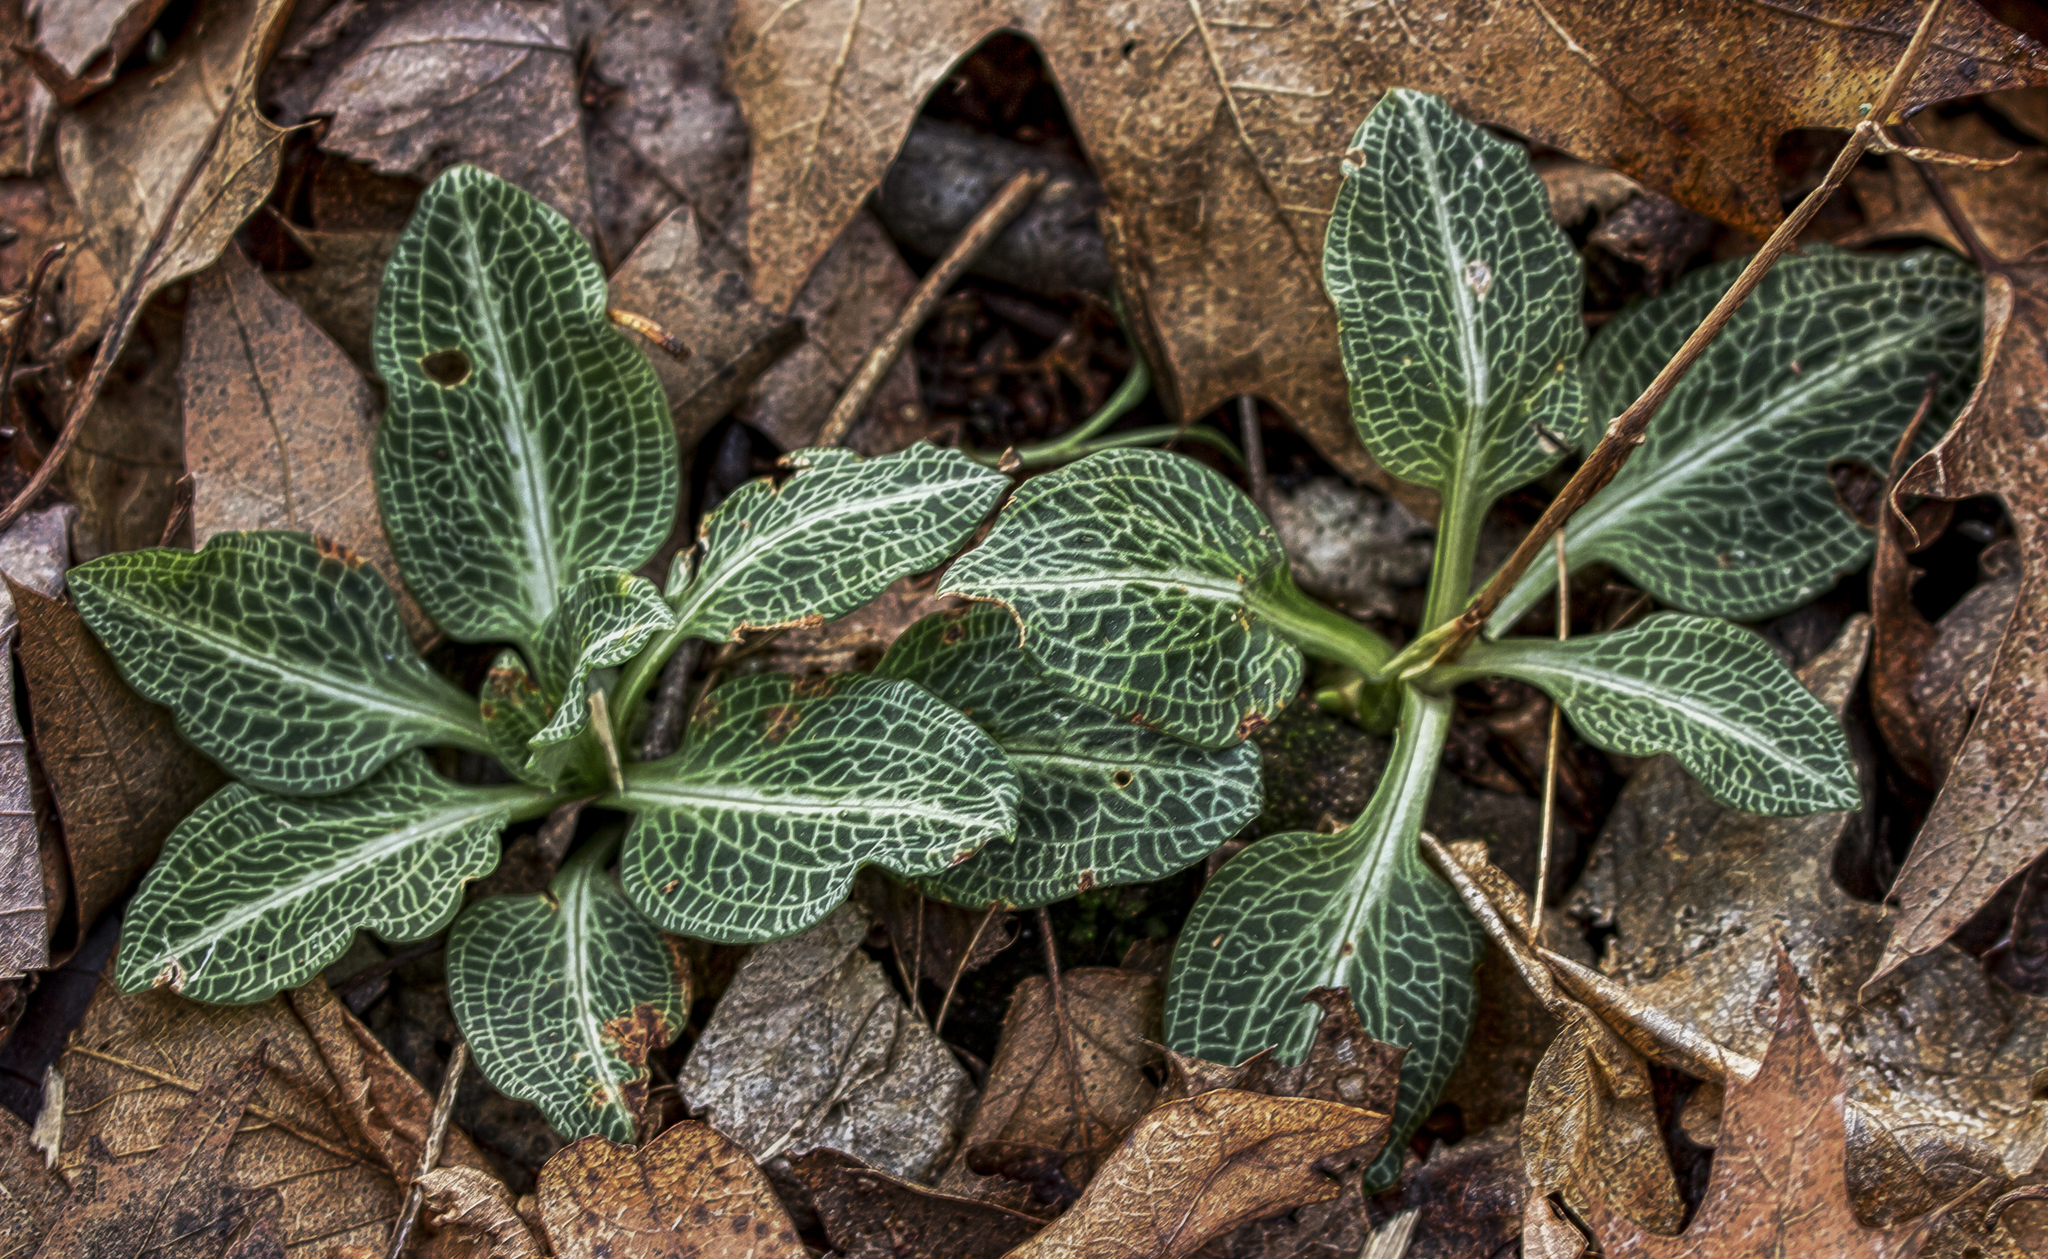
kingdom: Plantae
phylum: Tracheophyta
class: Liliopsida
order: Asparagales
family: Orchidaceae
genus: Goodyera
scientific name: Goodyera pubescens
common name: Downy rattlesnake-plantain
